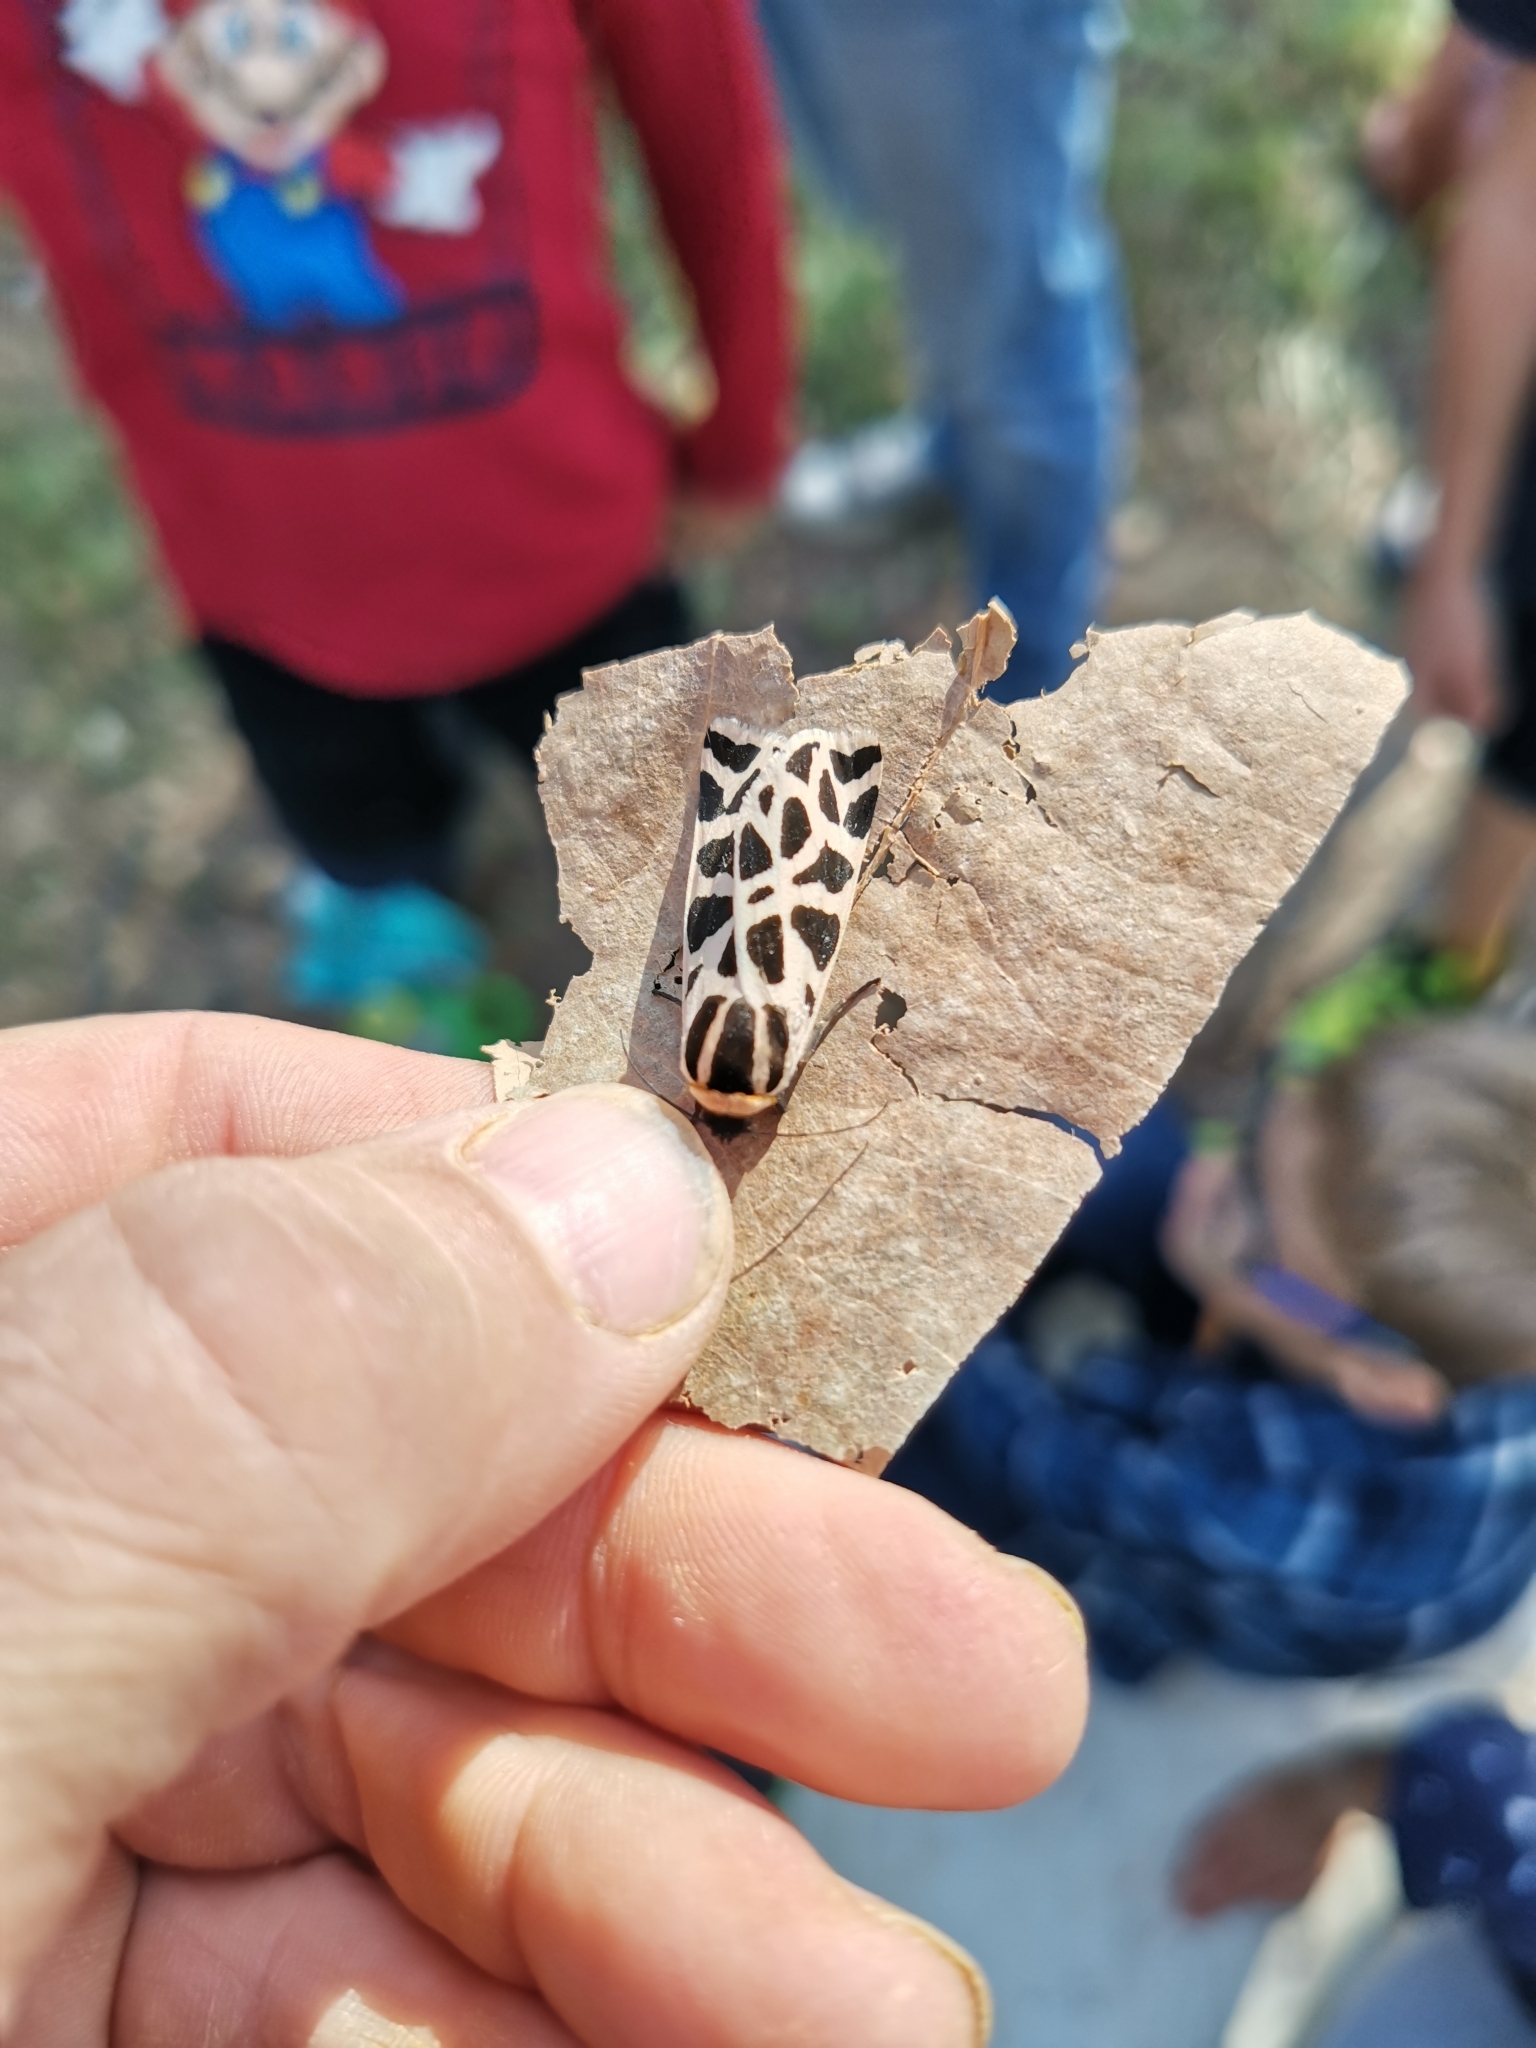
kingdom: Animalia
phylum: Arthropoda
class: Insecta
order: Lepidoptera
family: Erebidae
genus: Cymbalophora
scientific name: Cymbalophora pudica
